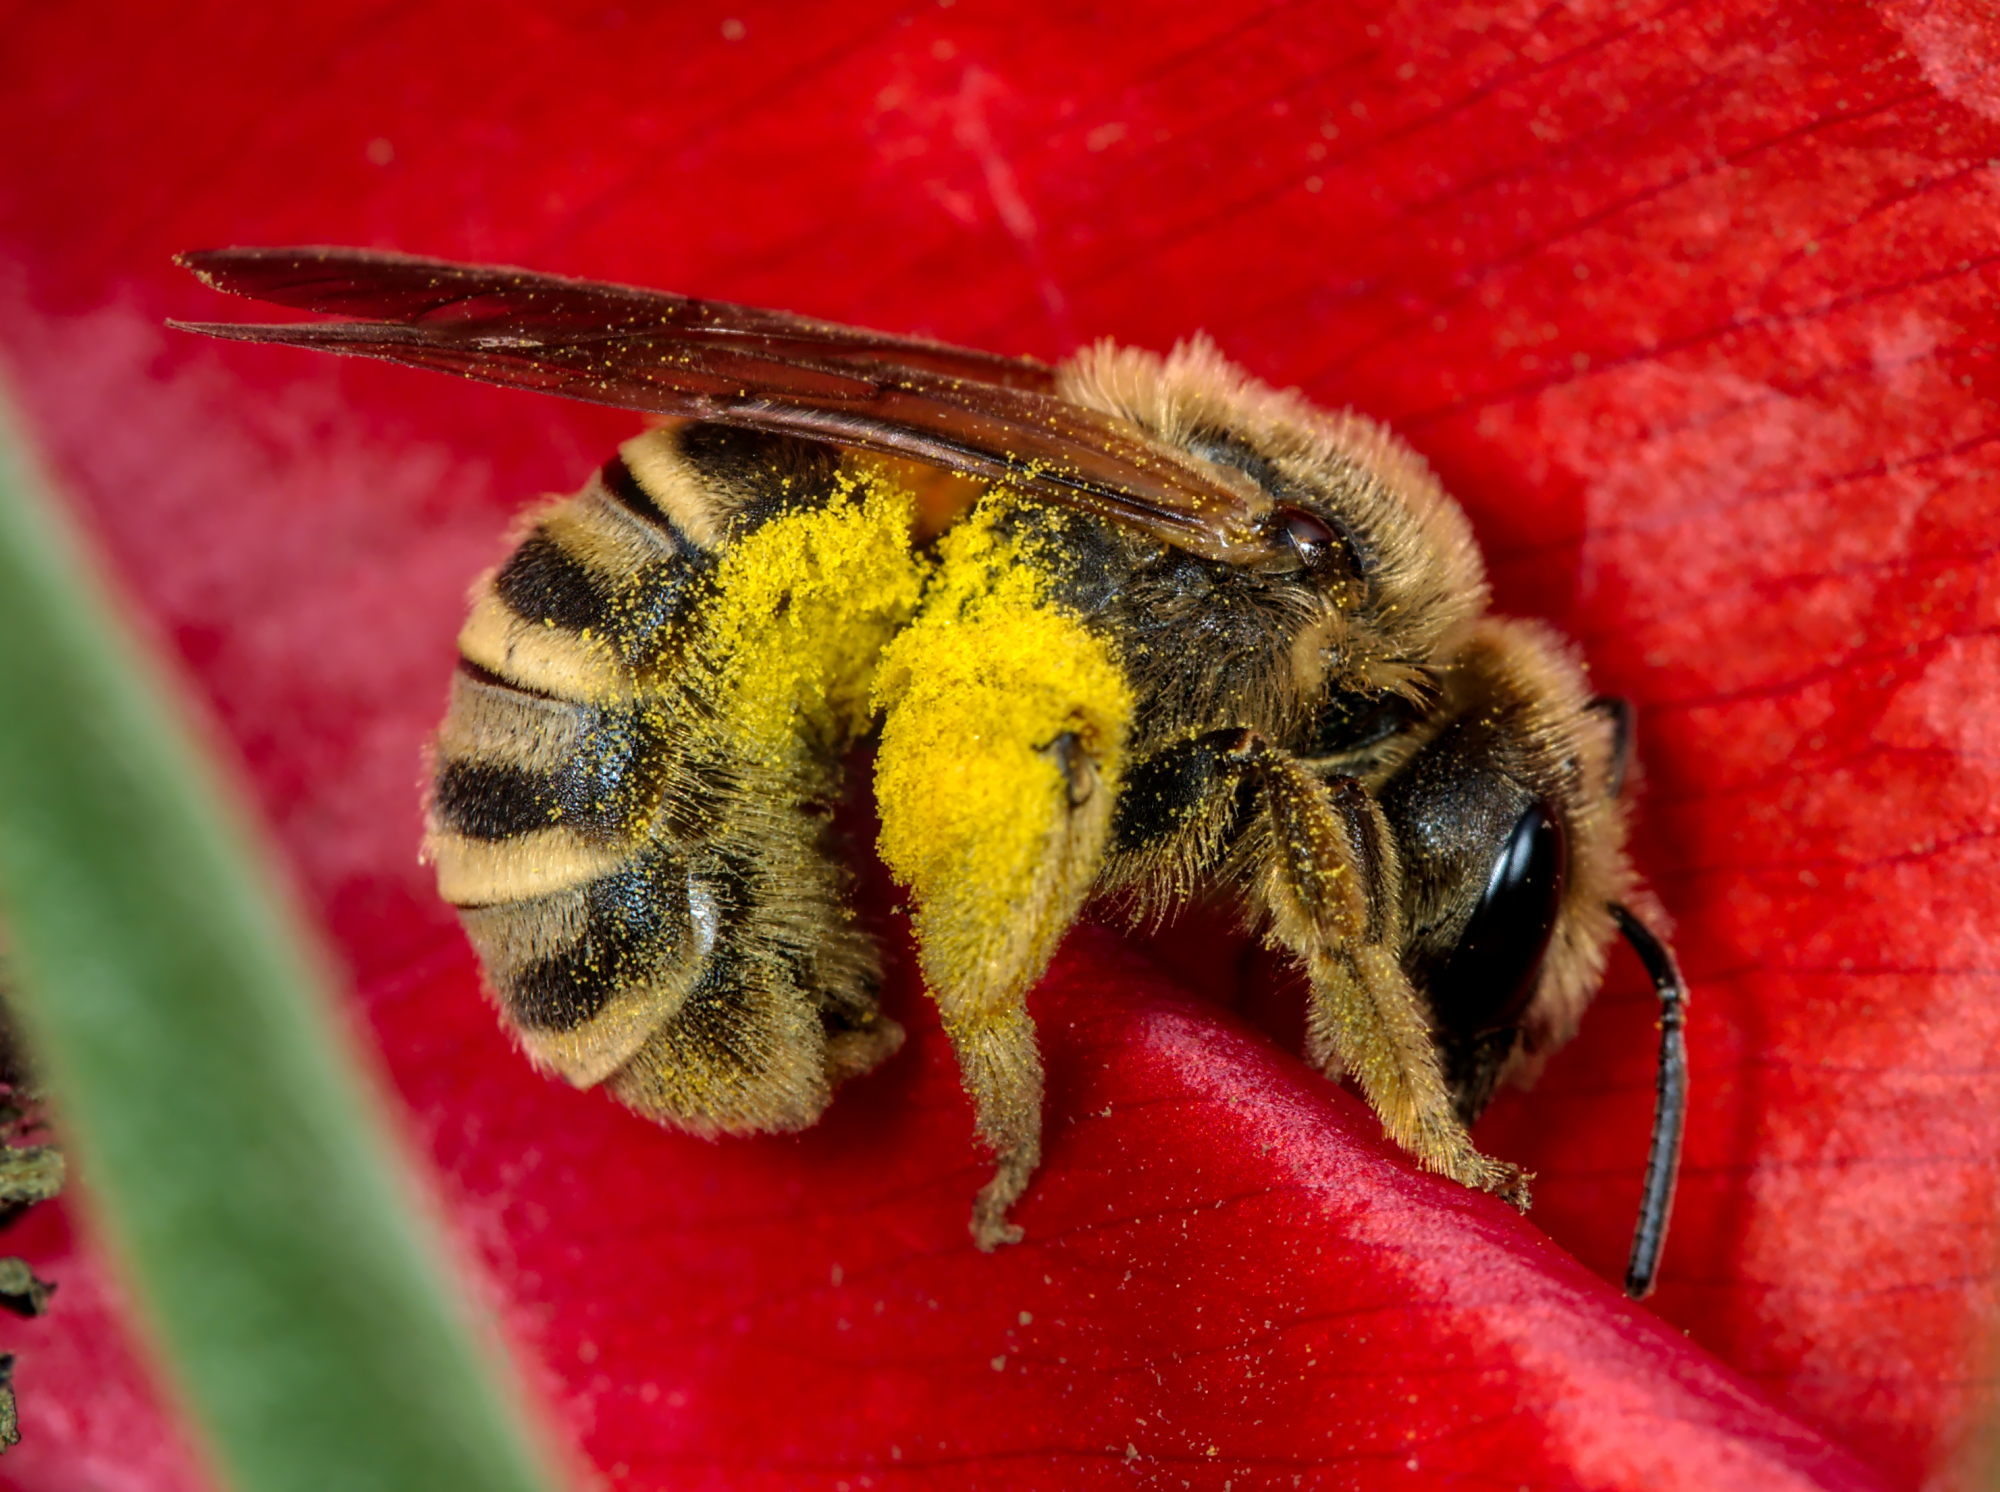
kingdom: Animalia
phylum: Arthropoda
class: Insecta
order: Hymenoptera
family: Halictidae
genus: Halictus
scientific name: Halictus scabiosae
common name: Great banded furrow bee
